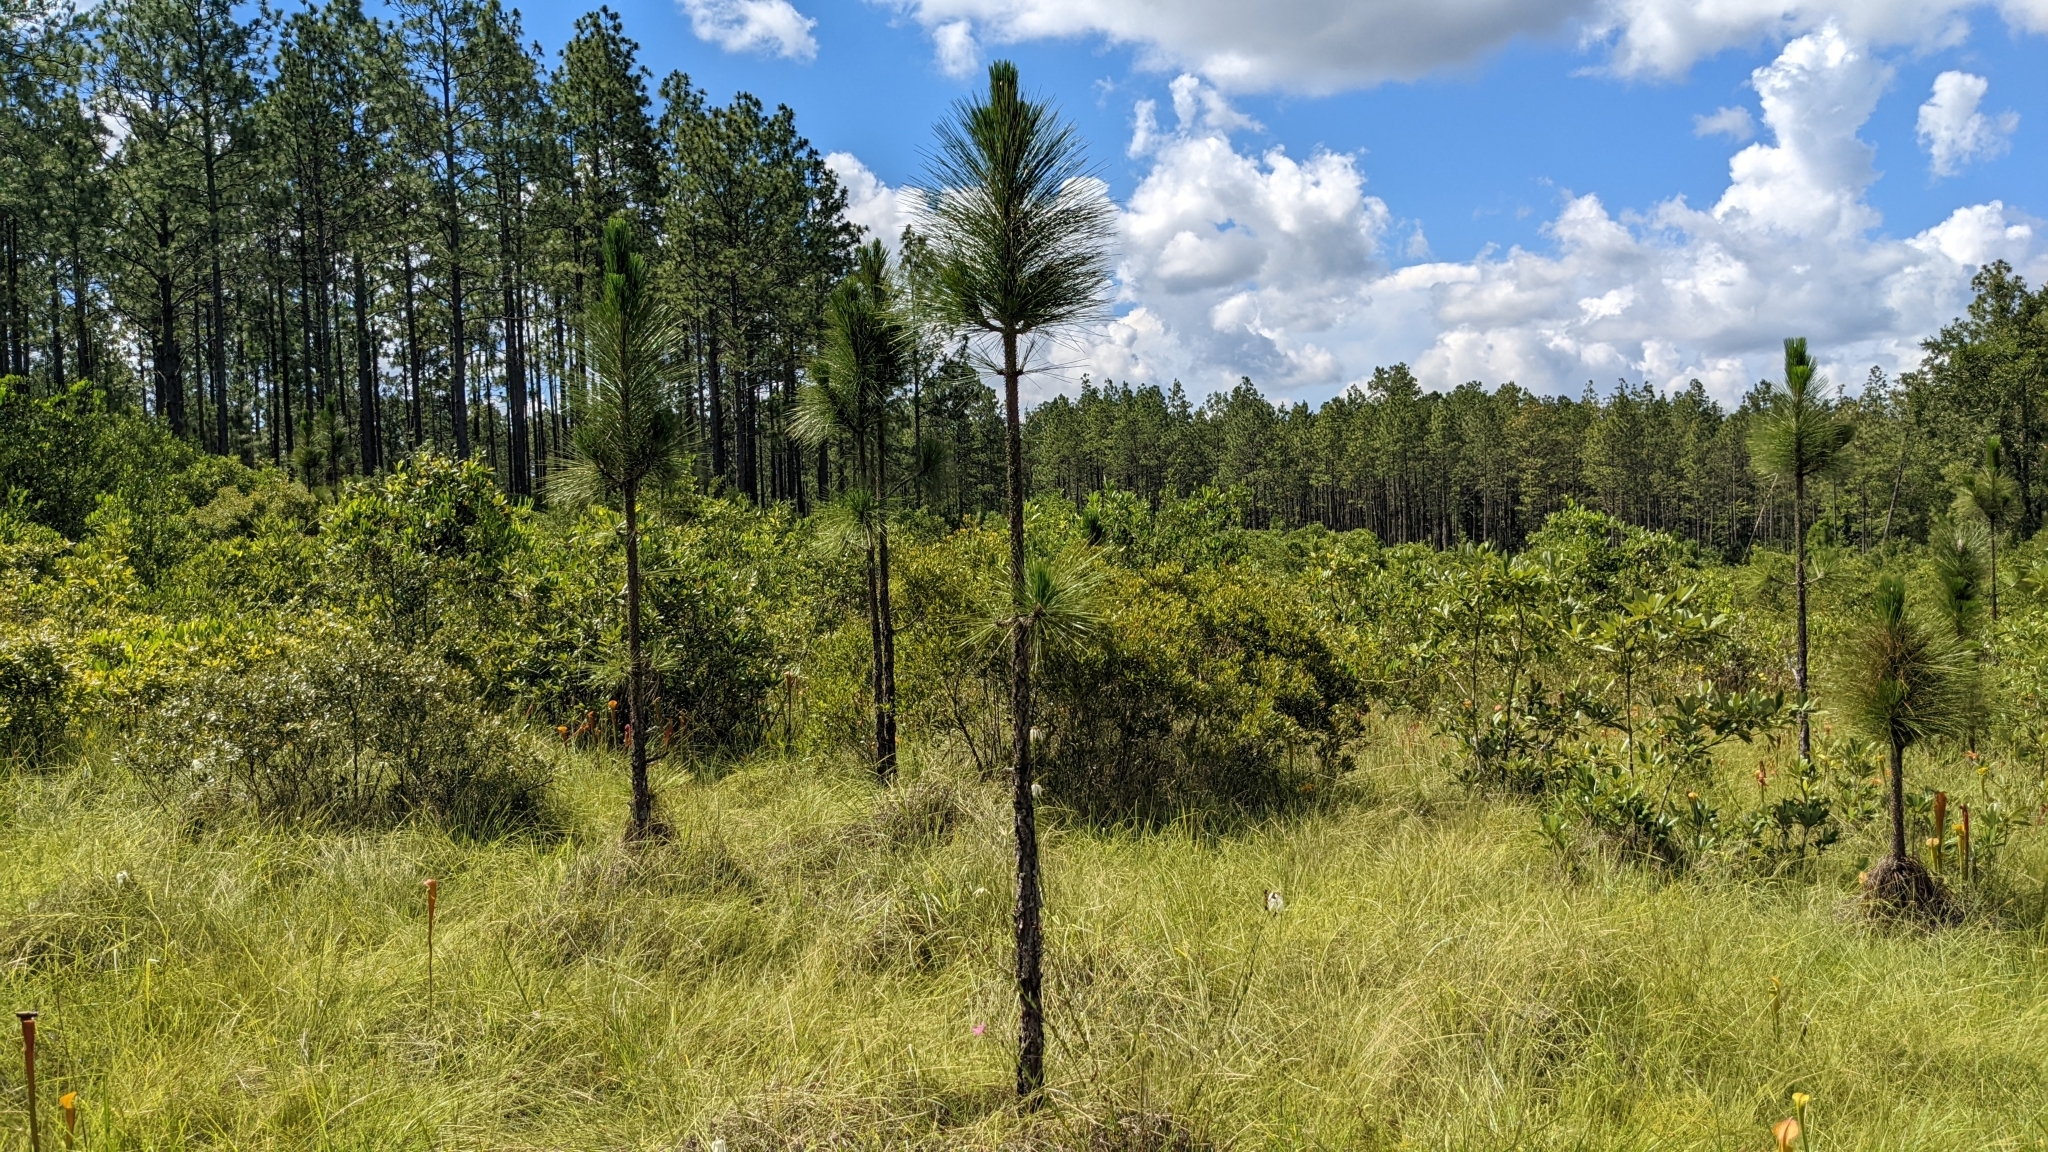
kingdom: Plantae
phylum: Tracheophyta
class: Pinopsida
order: Pinales
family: Pinaceae
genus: Pinus
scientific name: Pinus palustris
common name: Longleaf pine
